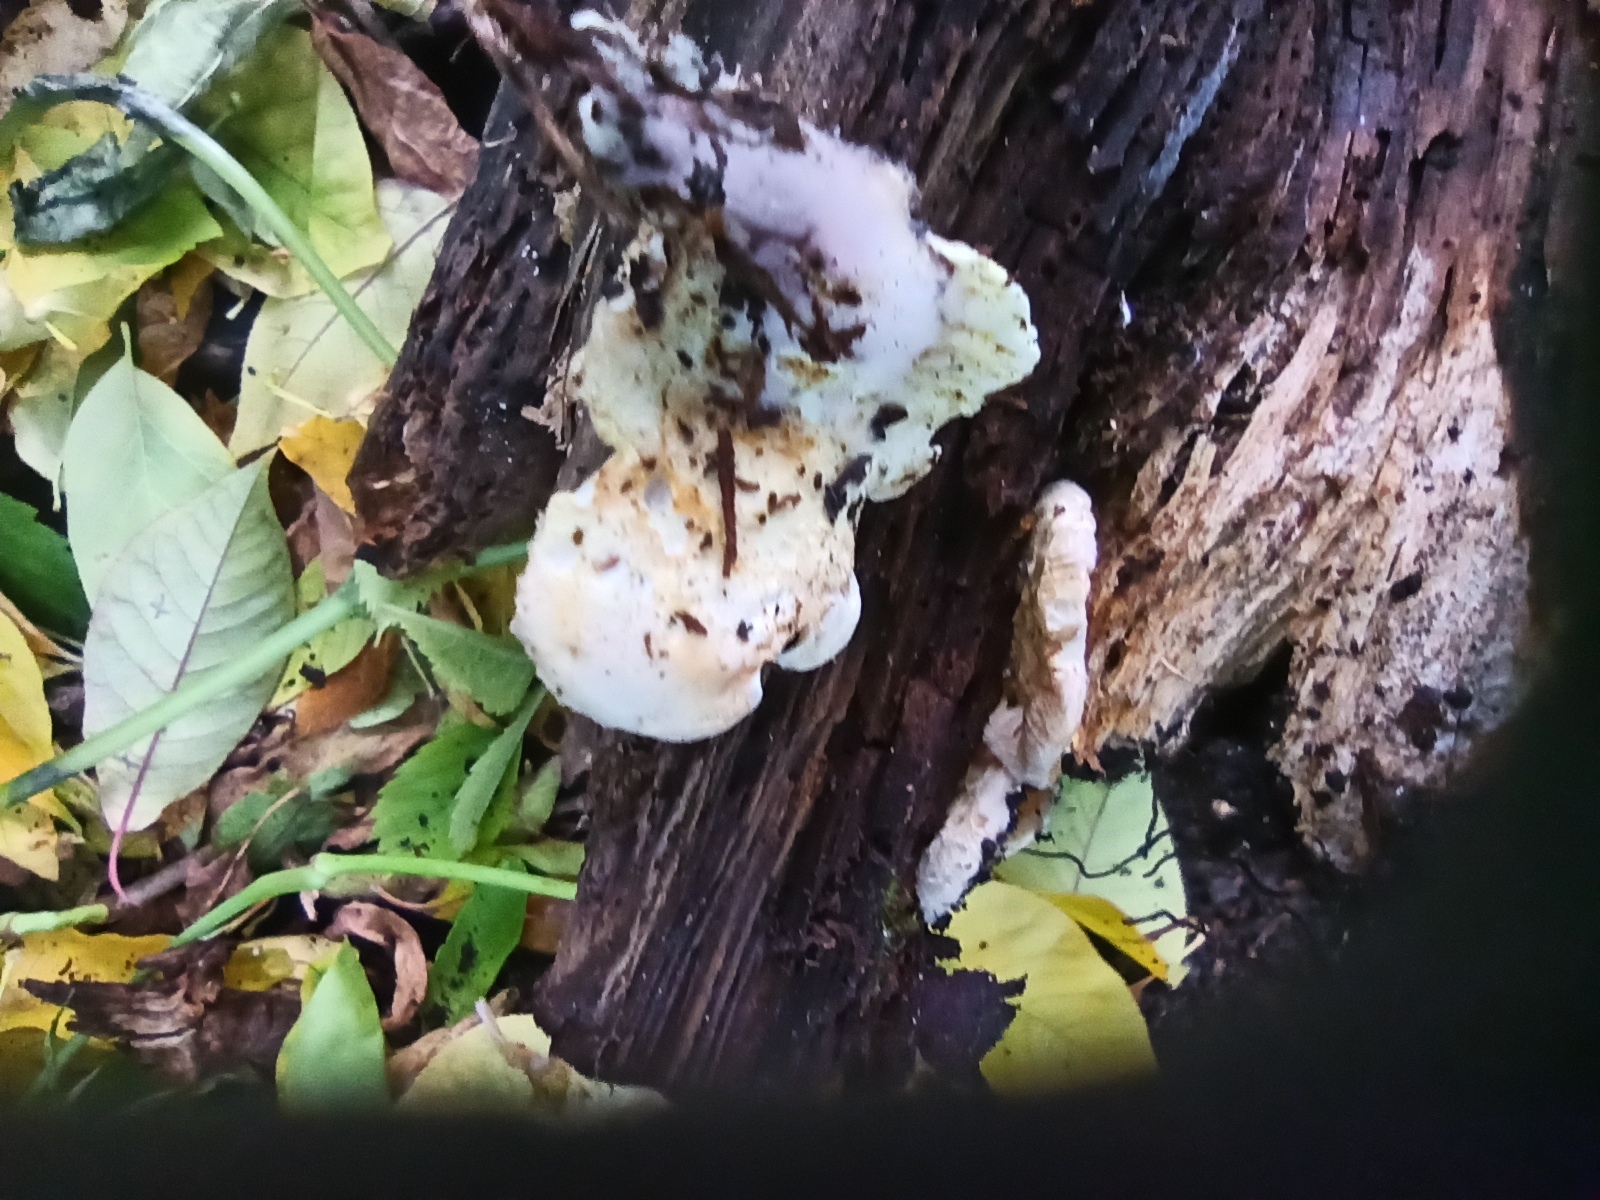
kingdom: Fungi
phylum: Basidiomycota
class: Agaricomycetes
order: Boletales
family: Tapinellaceae
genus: Tapinella
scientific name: Tapinella panuoides
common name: Oyster rollrim
